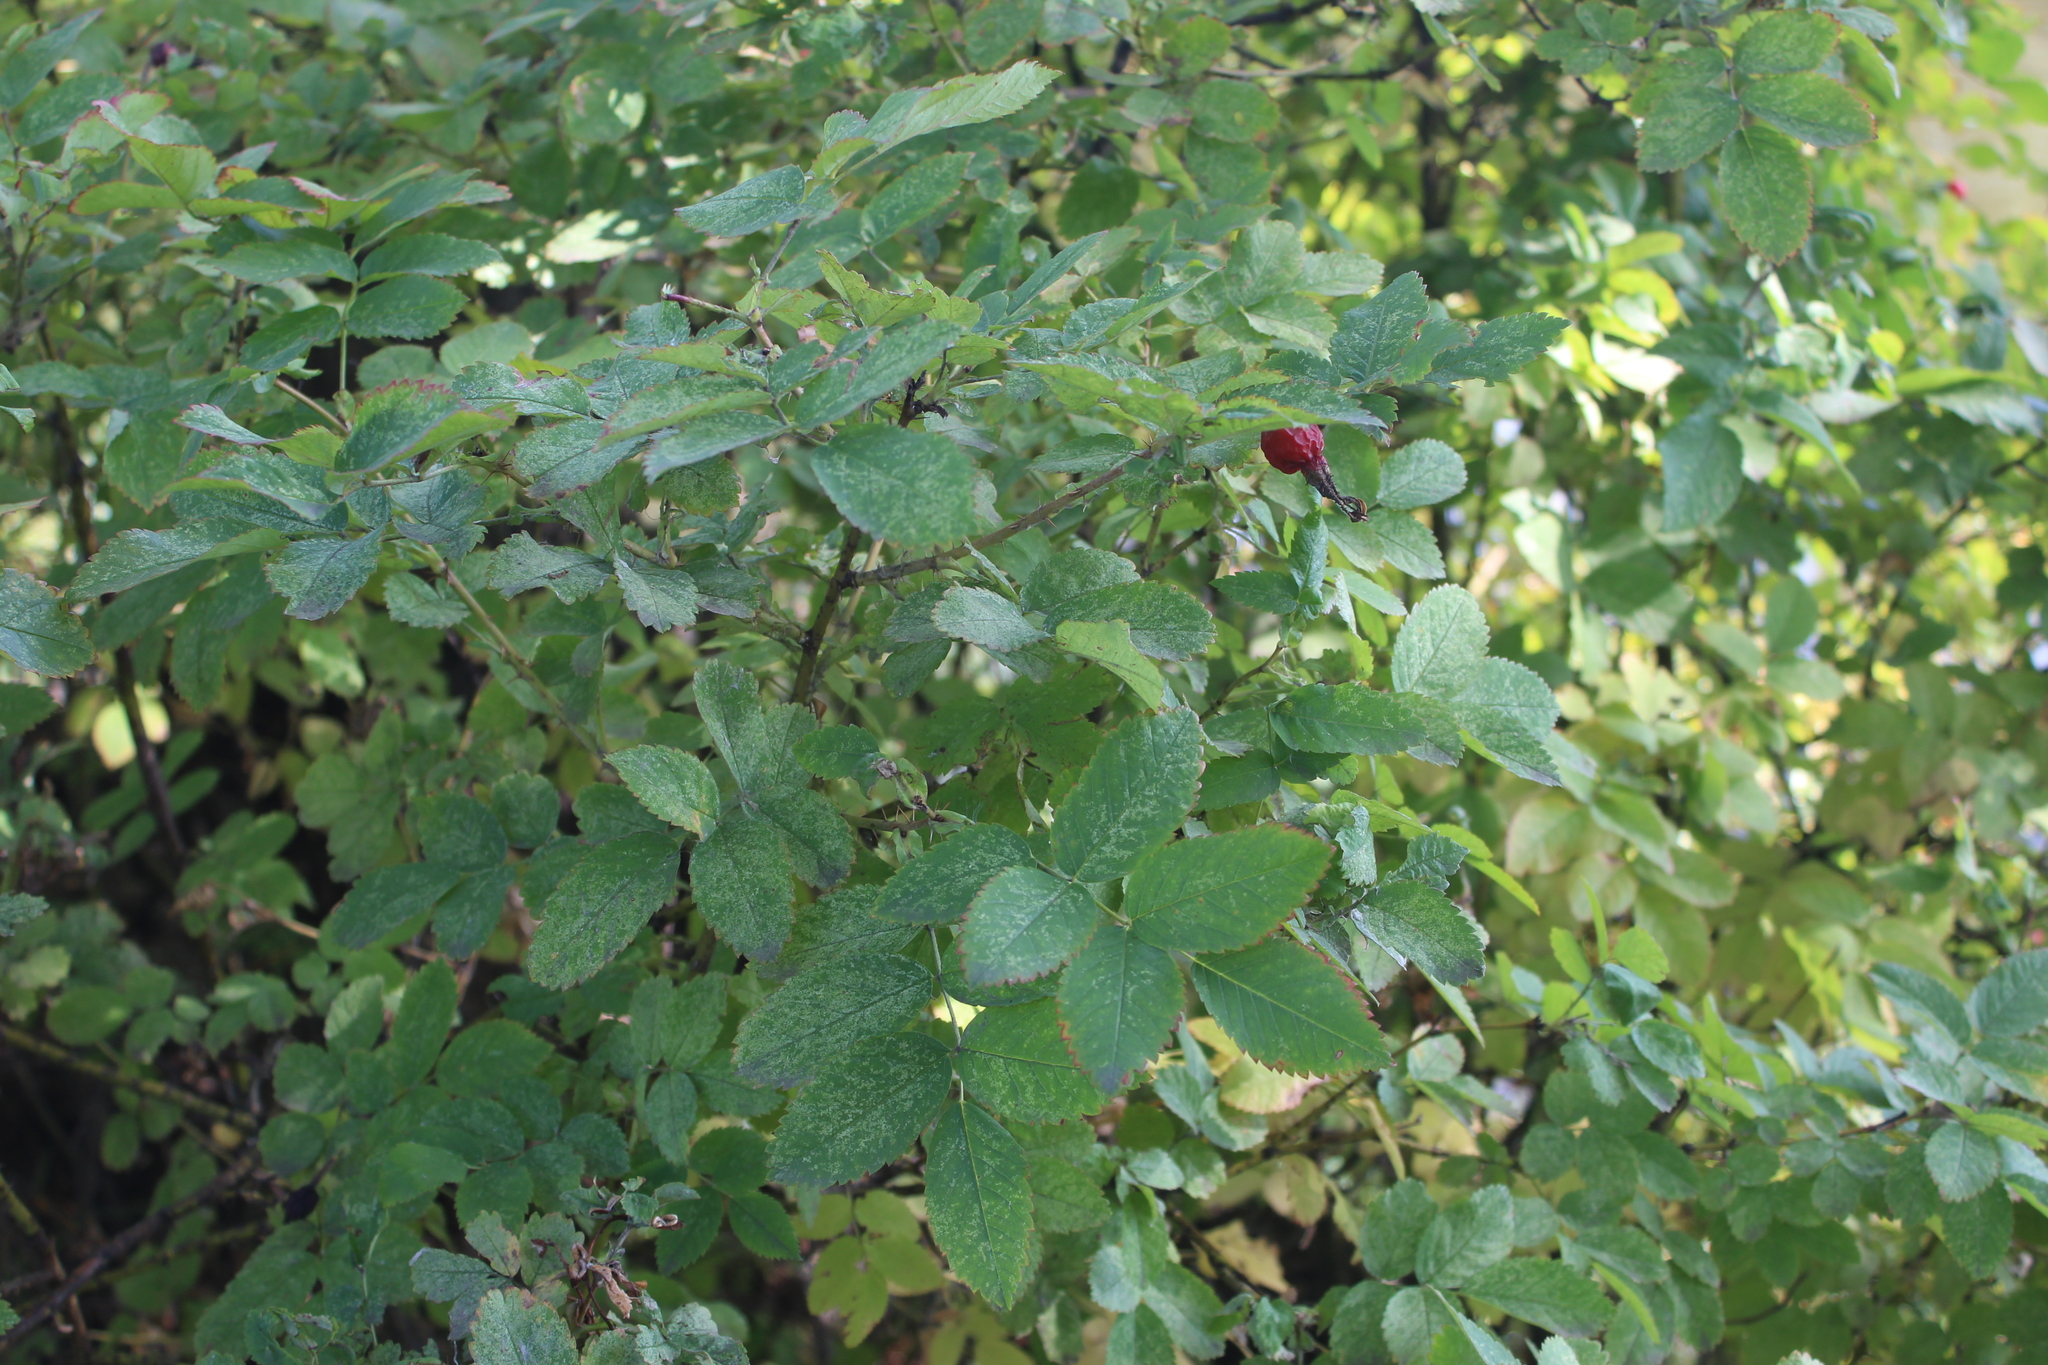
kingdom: Plantae
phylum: Tracheophyta
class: Magnoliopsida
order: Rosales
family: Rosaceae
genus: Rosa
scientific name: Rosa viarum
